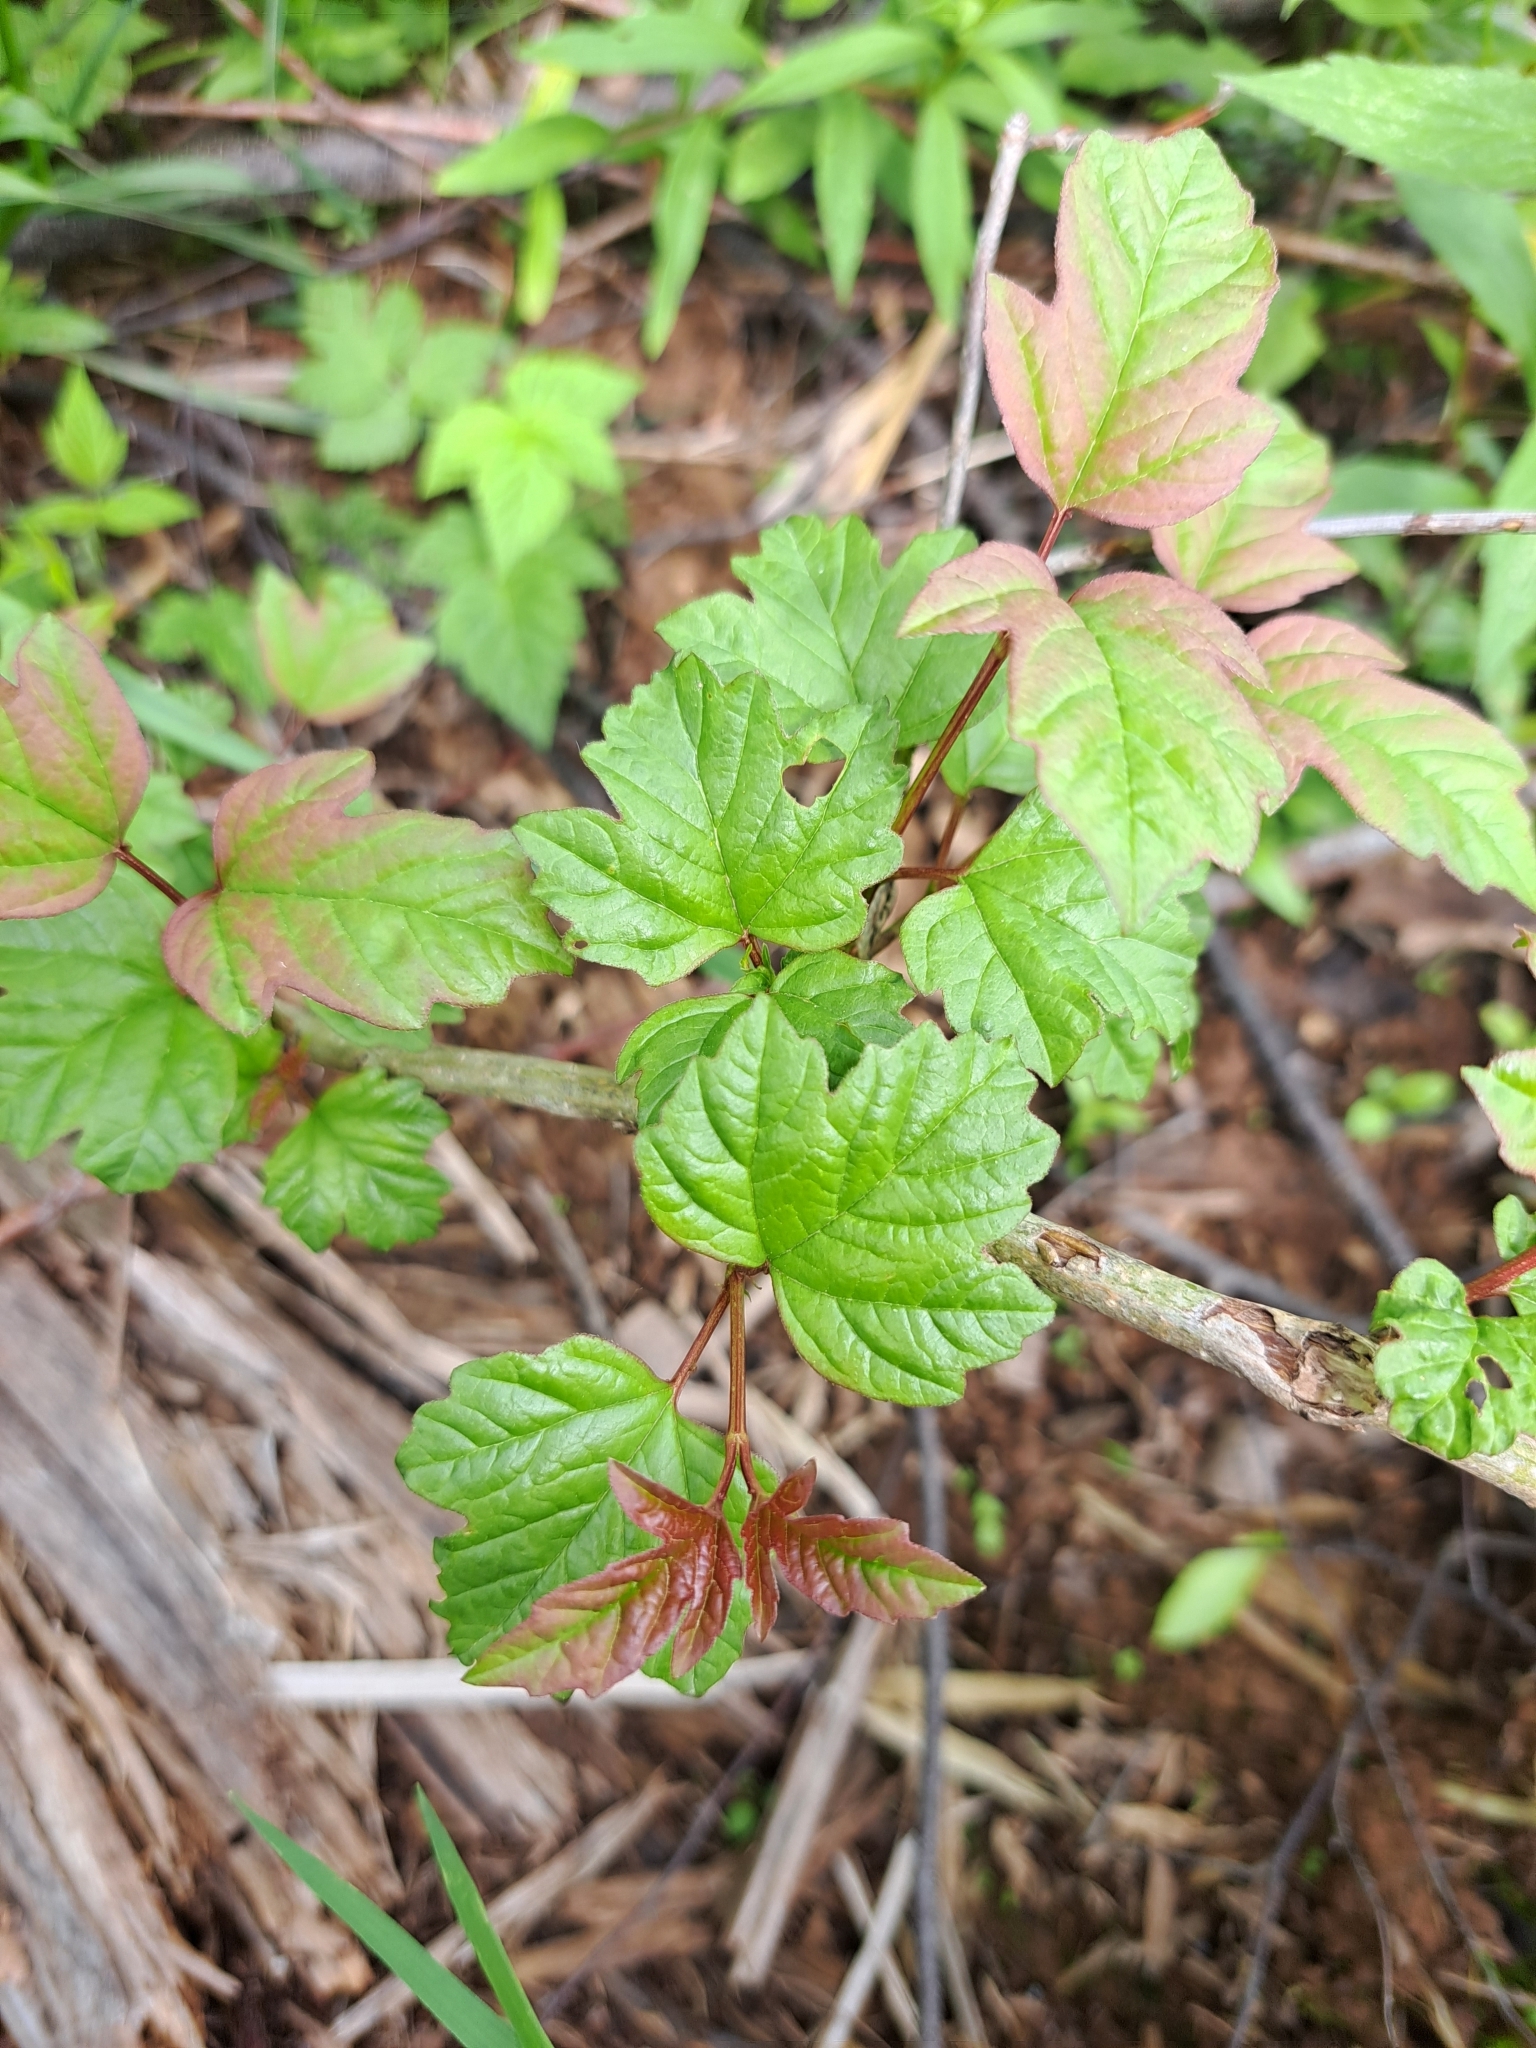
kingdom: Plantae
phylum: Tracheophyta
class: Magnoliopsida
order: Dipsacales
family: Viburnaceae
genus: Viburnum
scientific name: Viburnum opulus
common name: Guelder-rose
